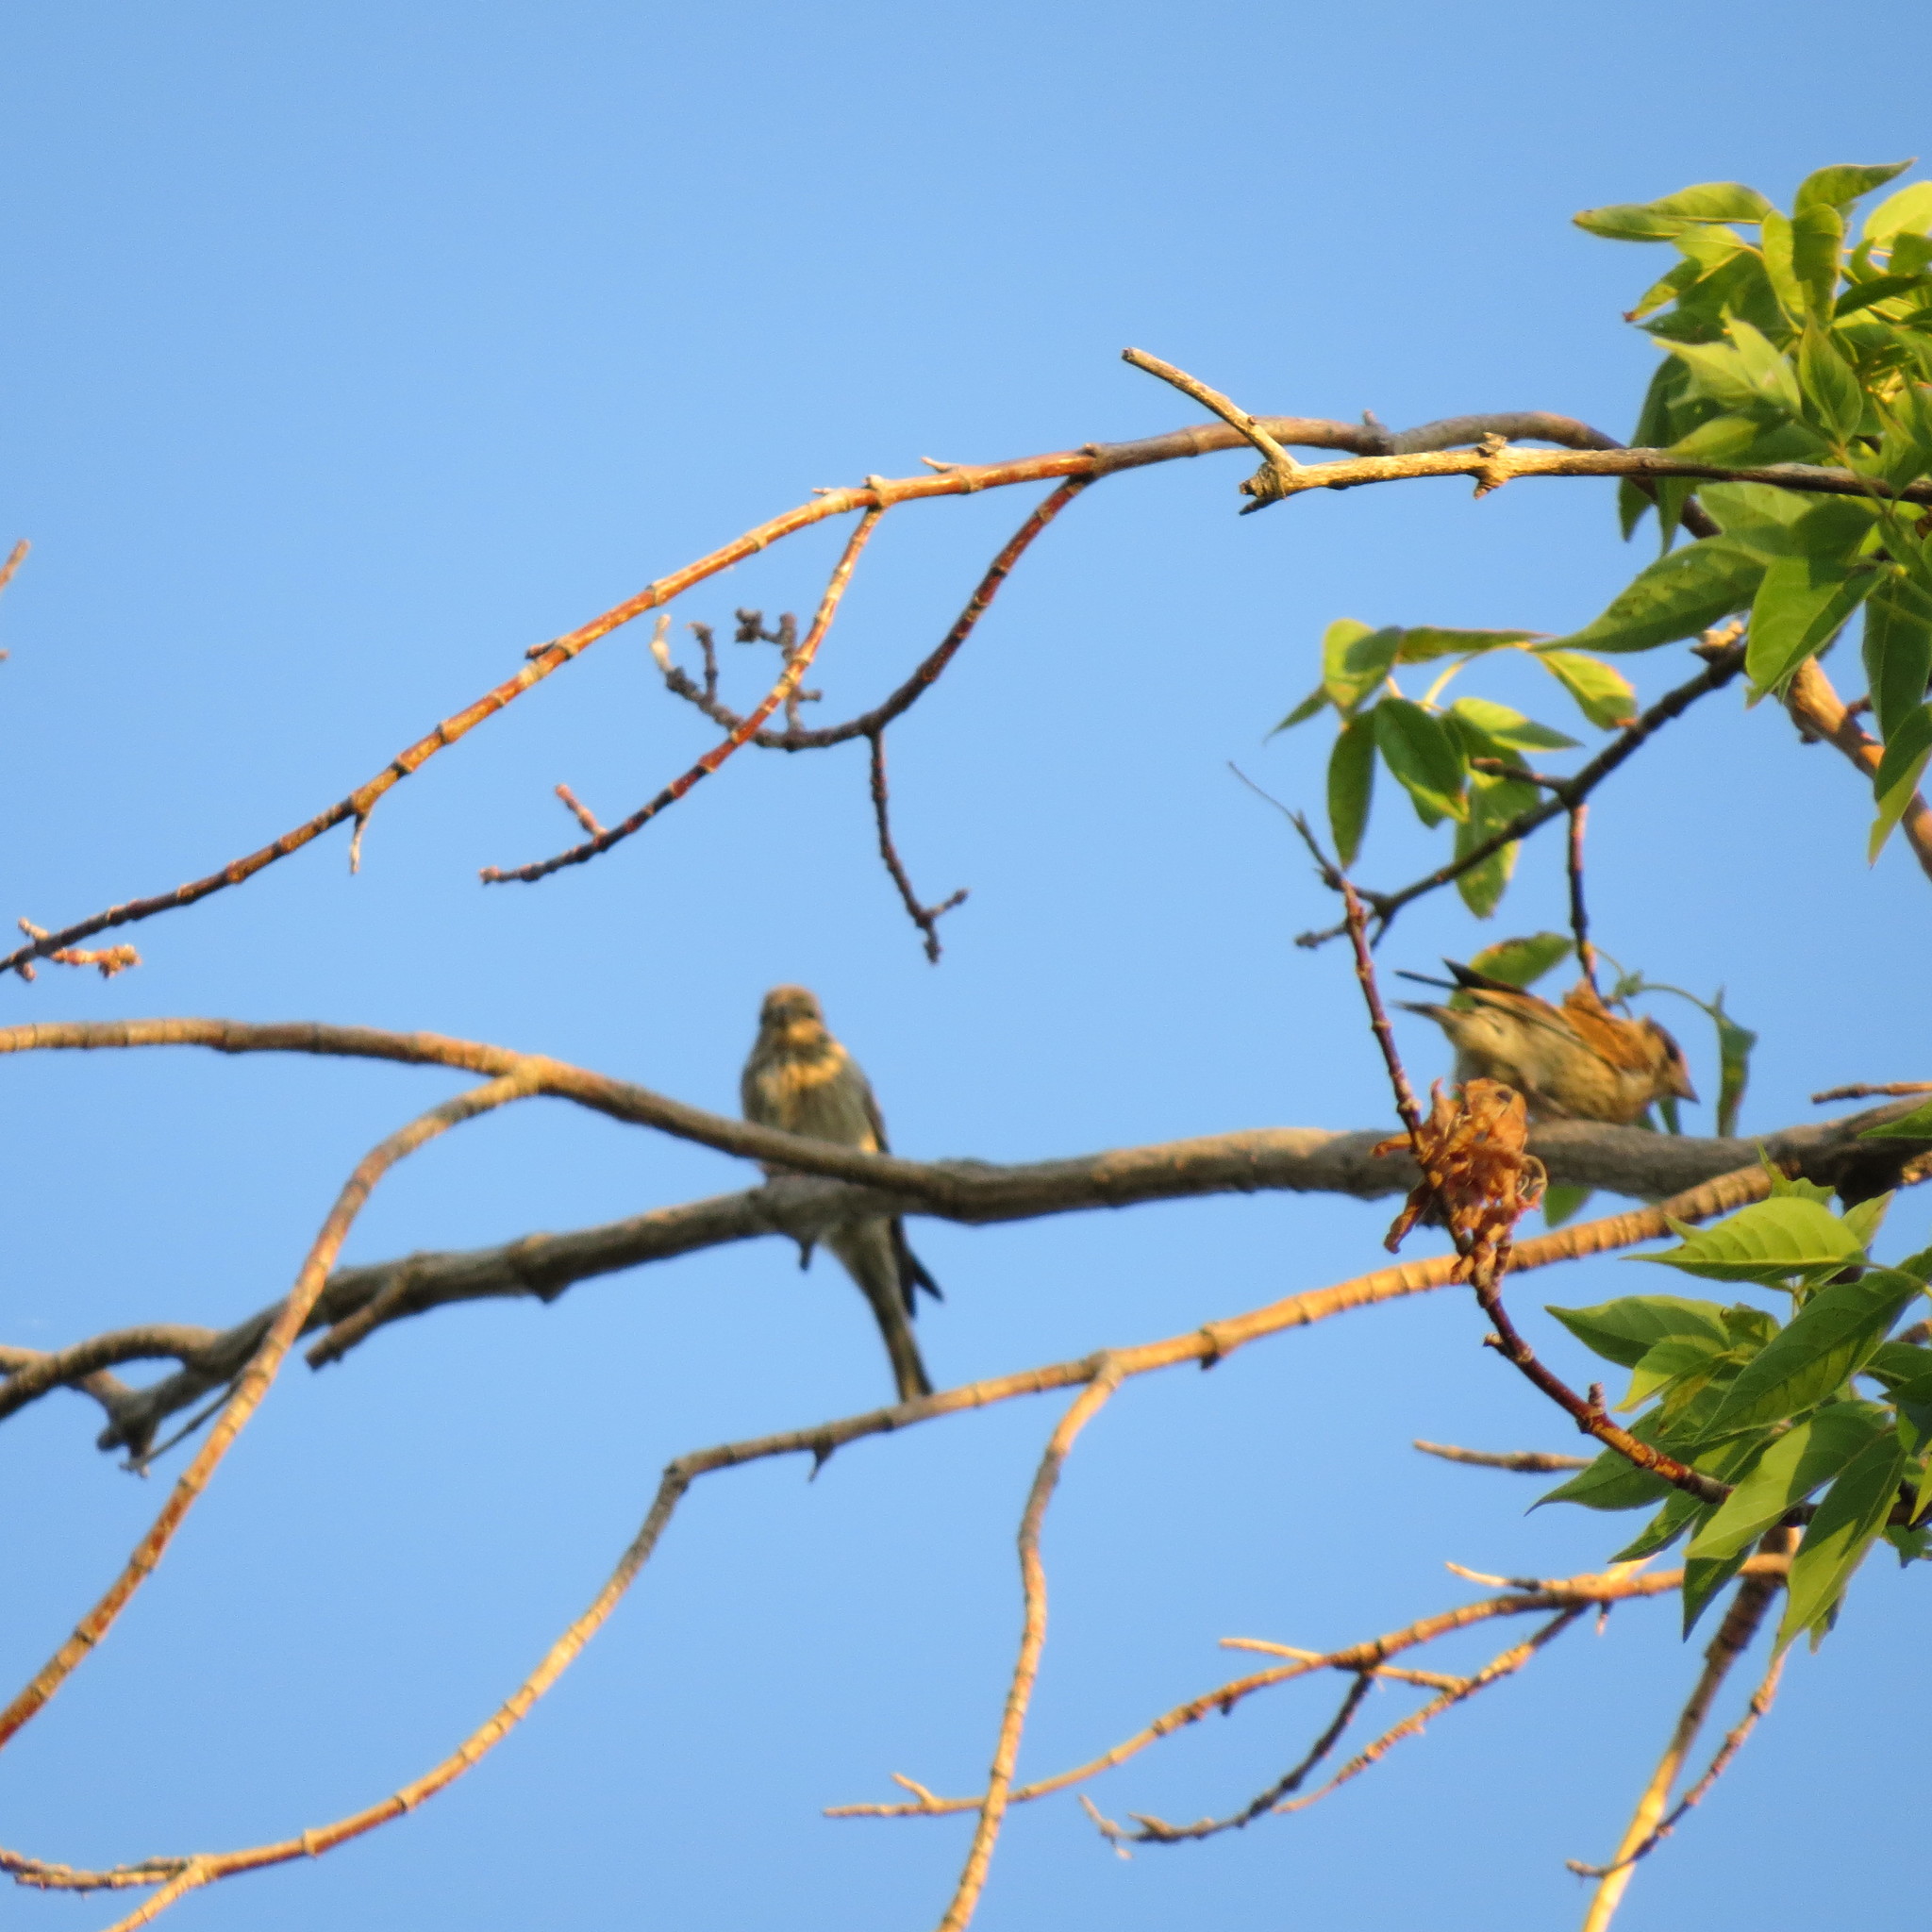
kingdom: Plantae
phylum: Tracheophyta
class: Liliopsida
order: Poales
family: Poaceae
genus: Chloris
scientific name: Chloris chloris
